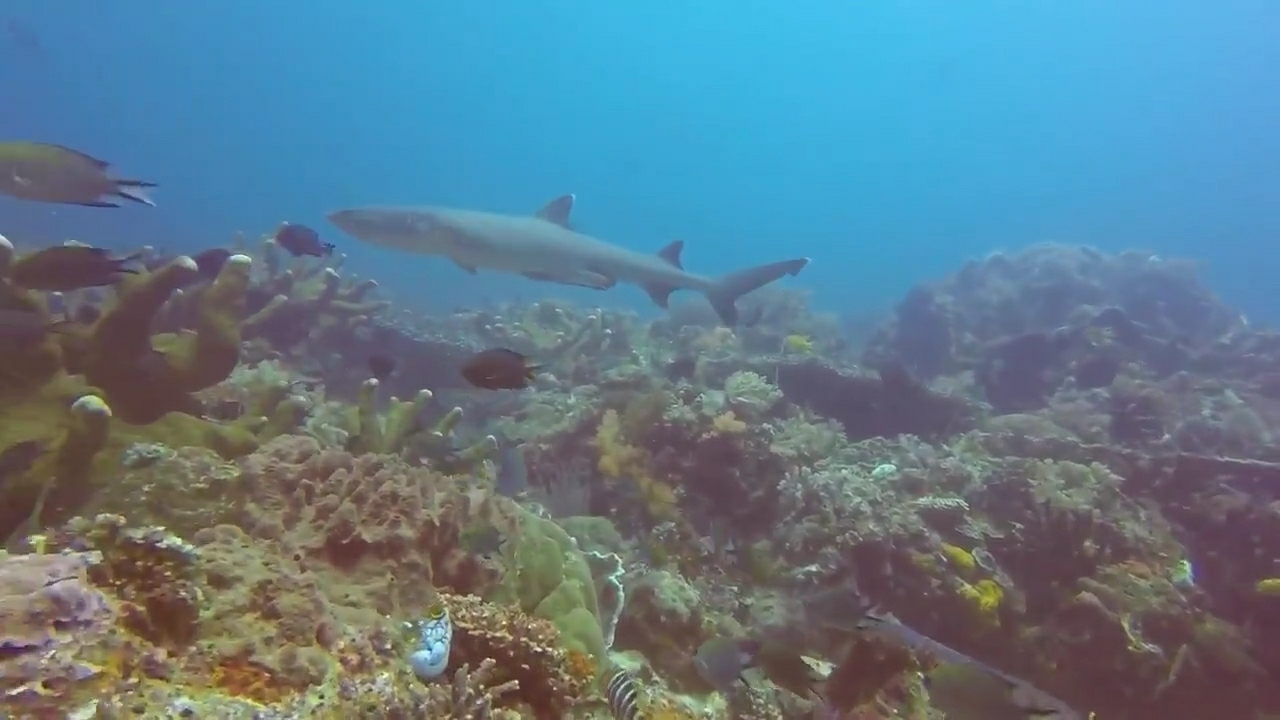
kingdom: Animalia
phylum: Chordata
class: Elasmobranchii
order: Carcharhiniformes
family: Carcharhinidae
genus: Triaenodon
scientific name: Triaenodon obesus
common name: Whitetip reef shark
